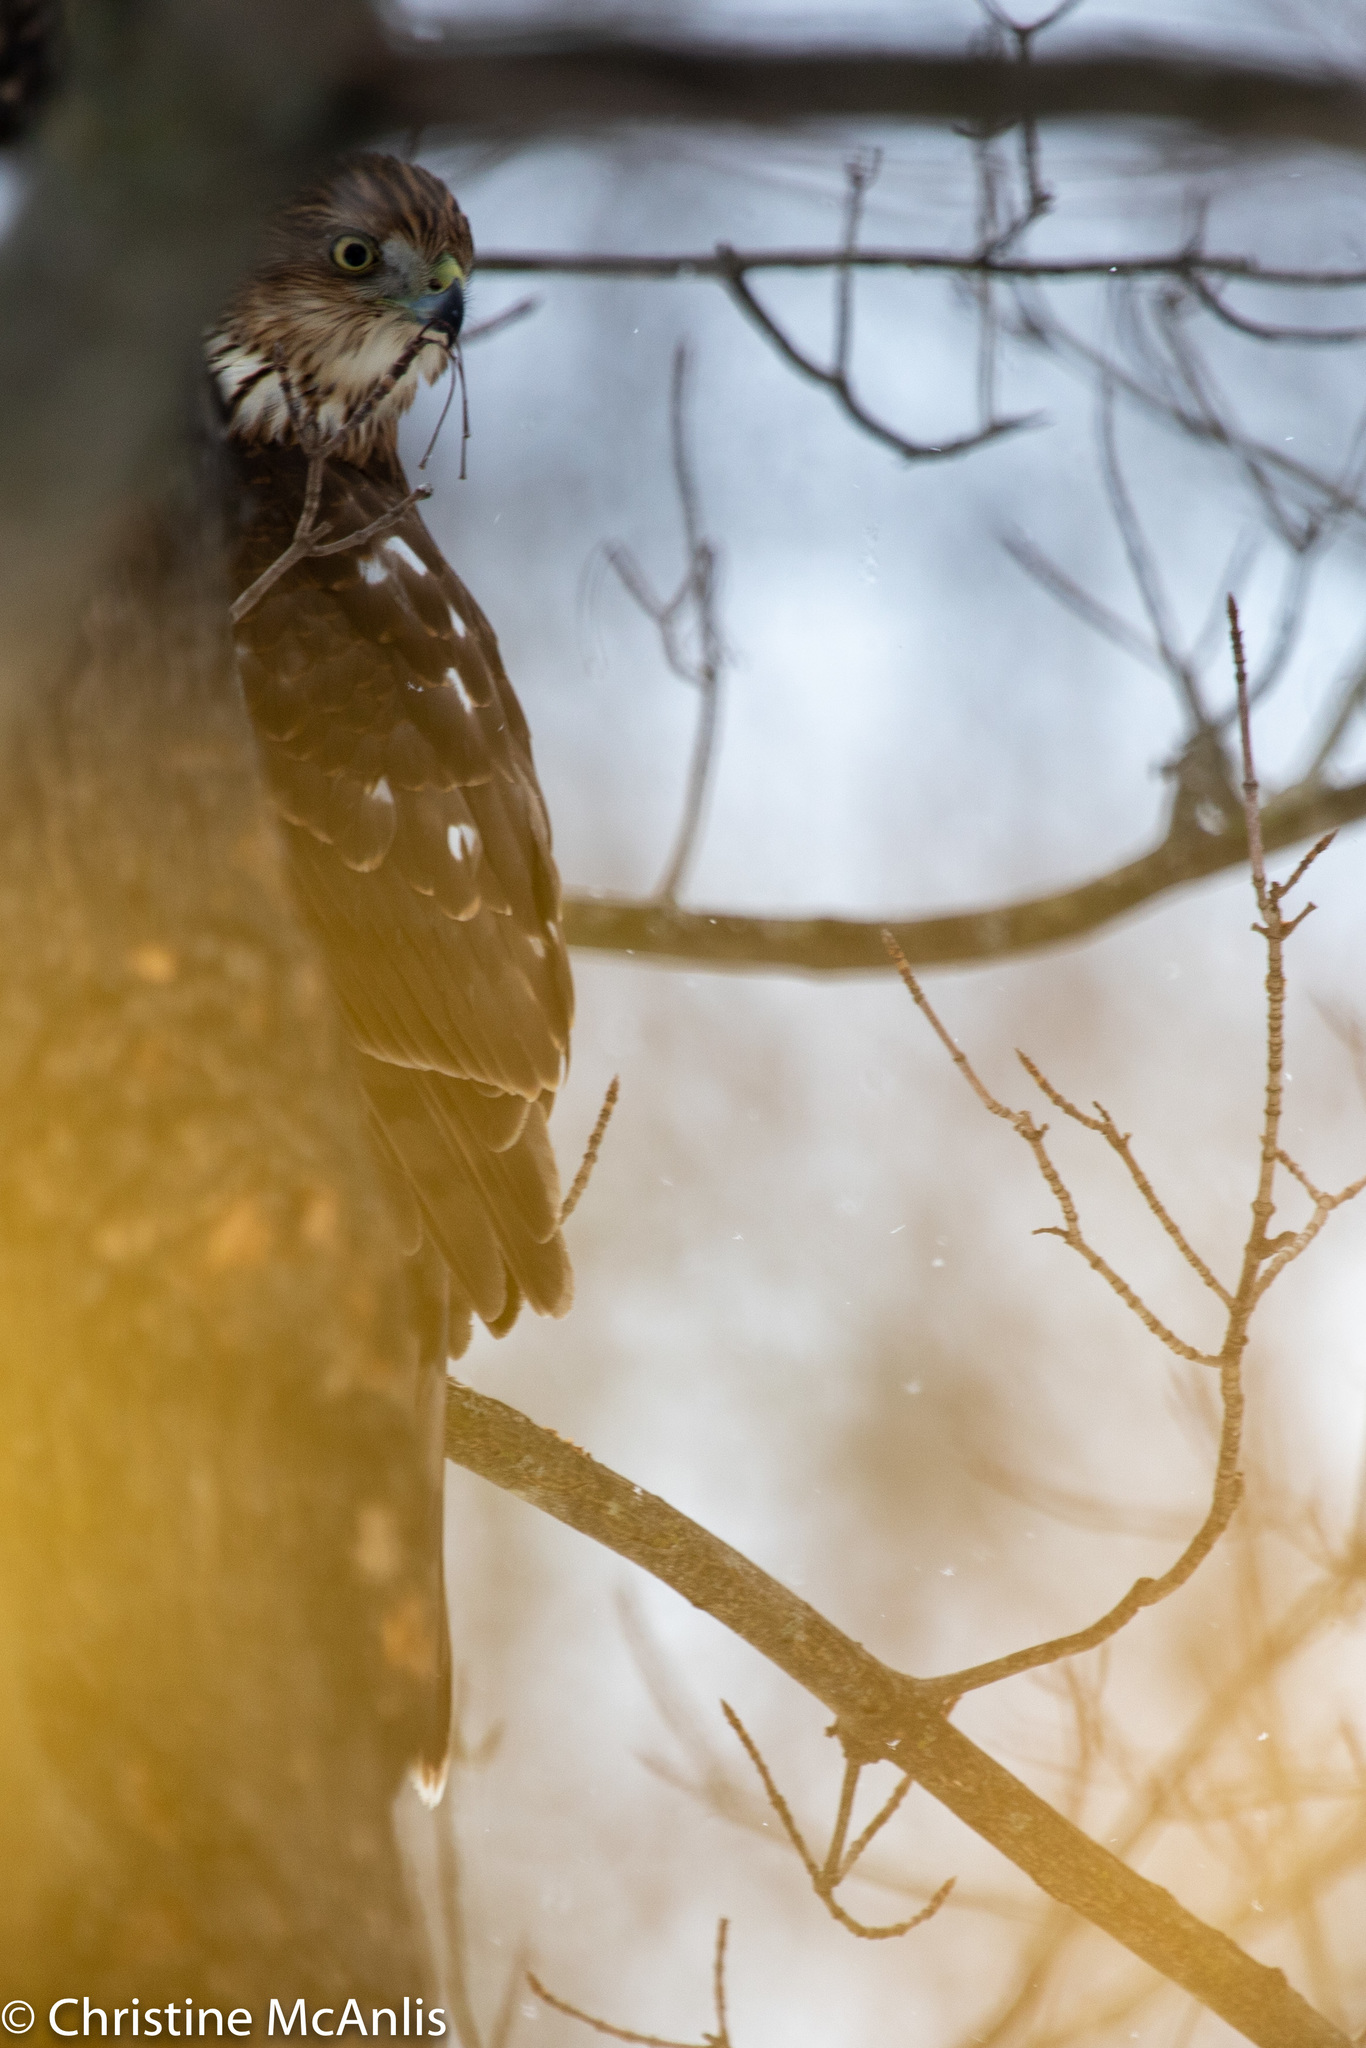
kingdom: Animalia
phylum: Chordata
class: Aves
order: Accipitriformes
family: Accipitridae
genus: Accipiter
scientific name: Accipiter cooperii
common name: Cooper's hawk
